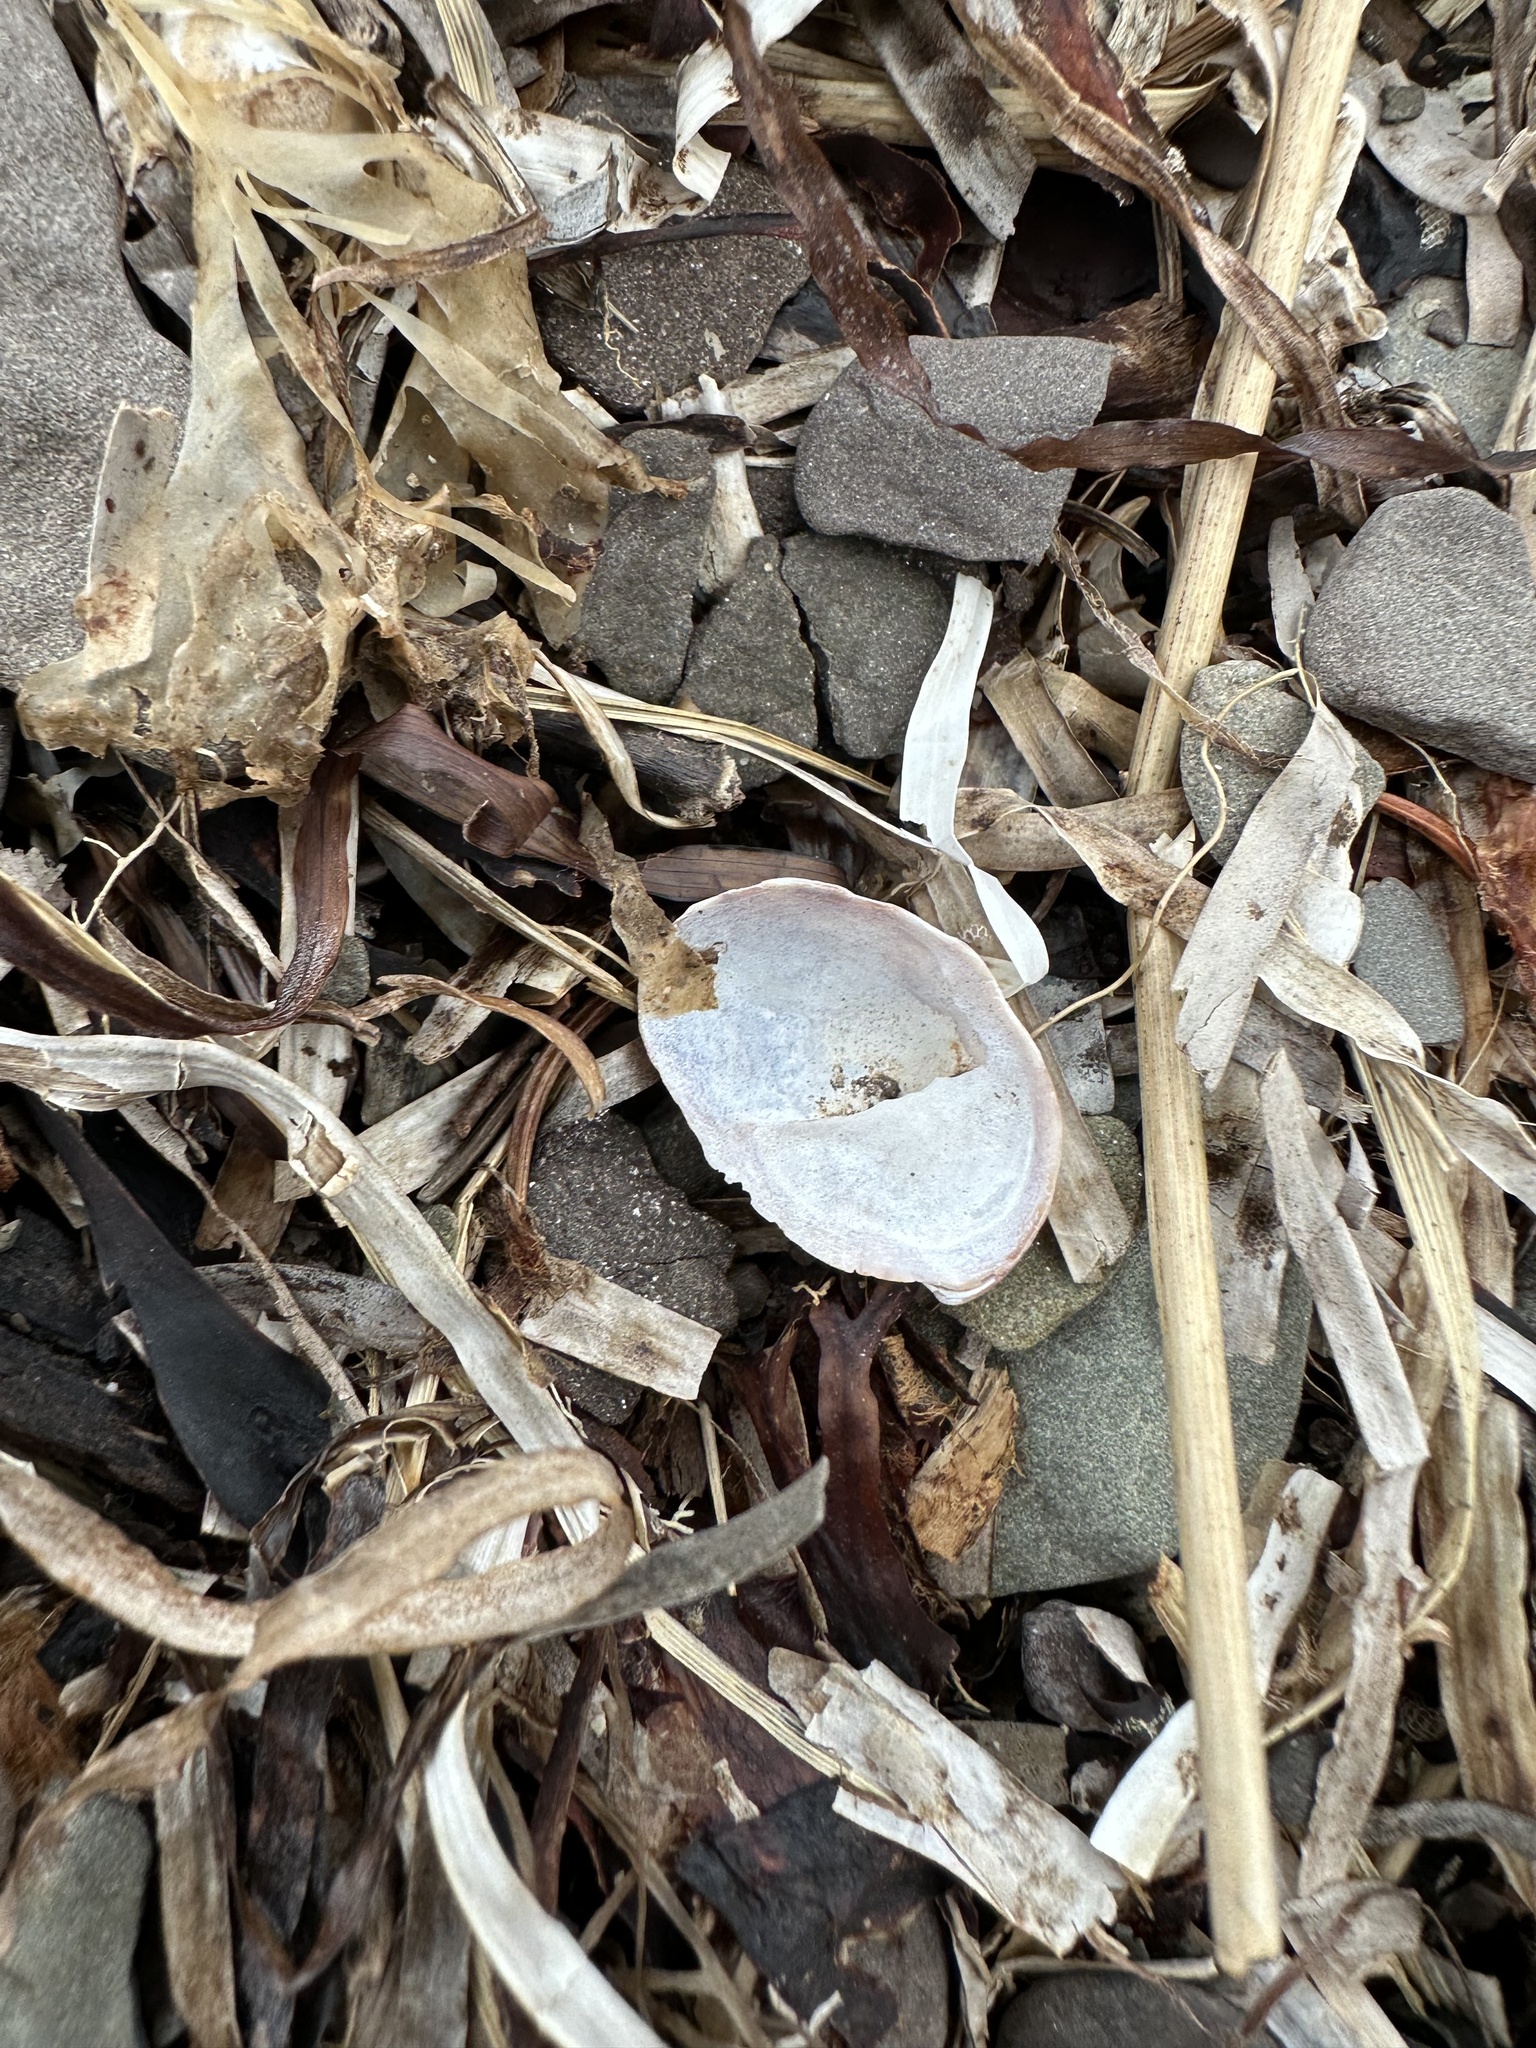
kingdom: Animalia
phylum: Mollusca
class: Gastropoda
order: Littorinimorpha
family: Calyptraeidae
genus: Crepidula
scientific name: Crepidula fornicata
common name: Slipper limpet
